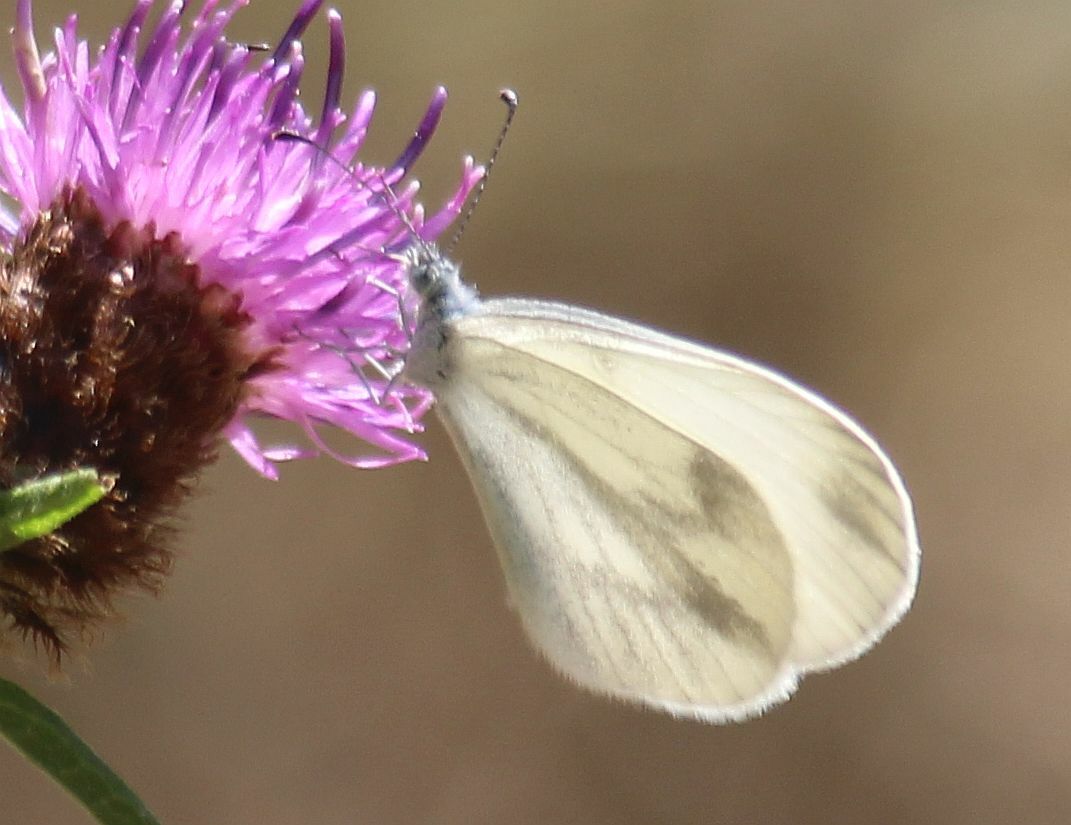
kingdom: Animalia
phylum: Arthropoda
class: Insecta
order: Lepidoptera
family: Pieridae
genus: Leptidea
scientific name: Leptidea sinapis
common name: Wood white
